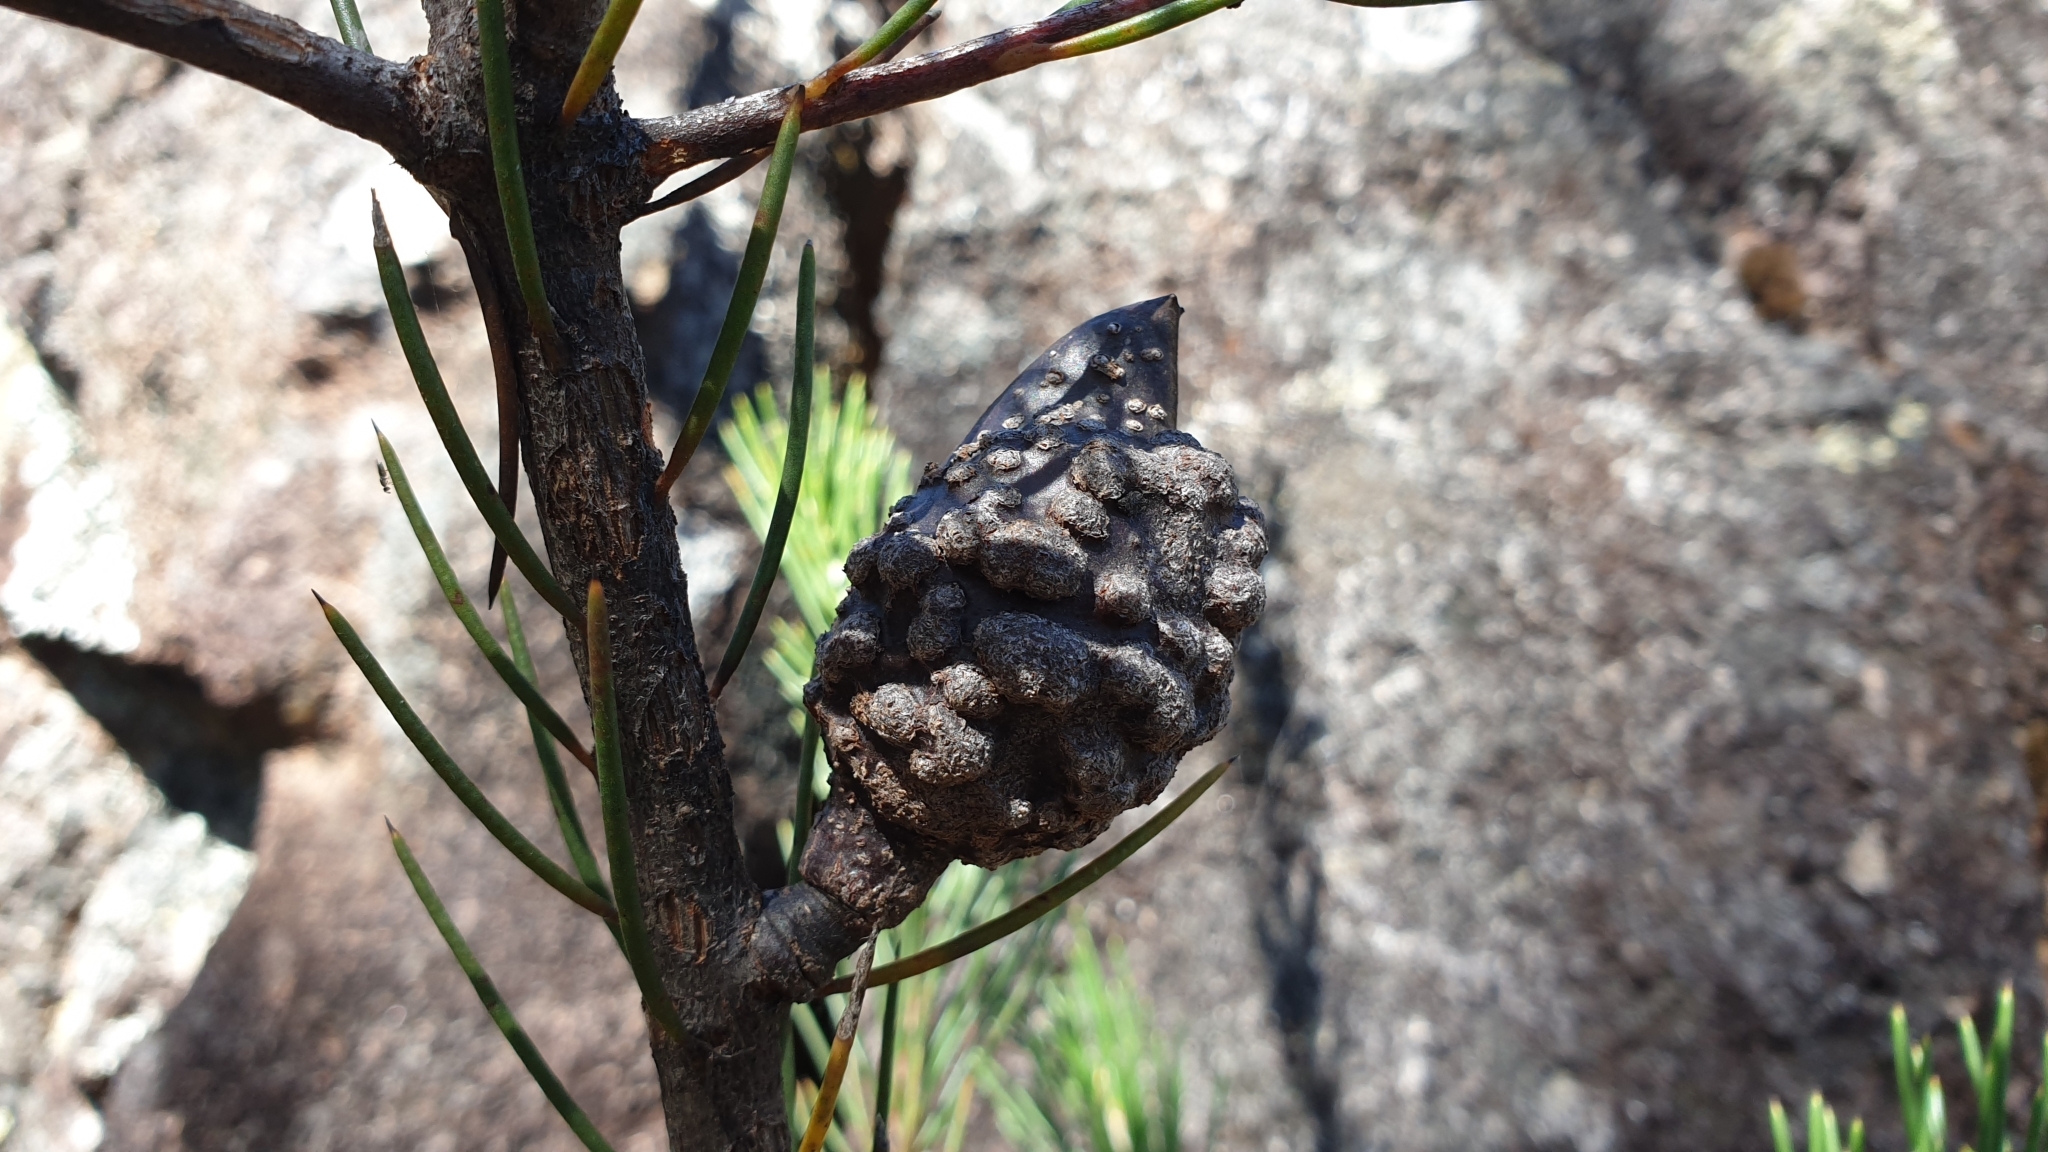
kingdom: Plantae
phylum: Tracheophyta
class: Magnoliopsida
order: Proteales
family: Proteaceae
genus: Hakea
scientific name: Hakea macrorrhyncha
